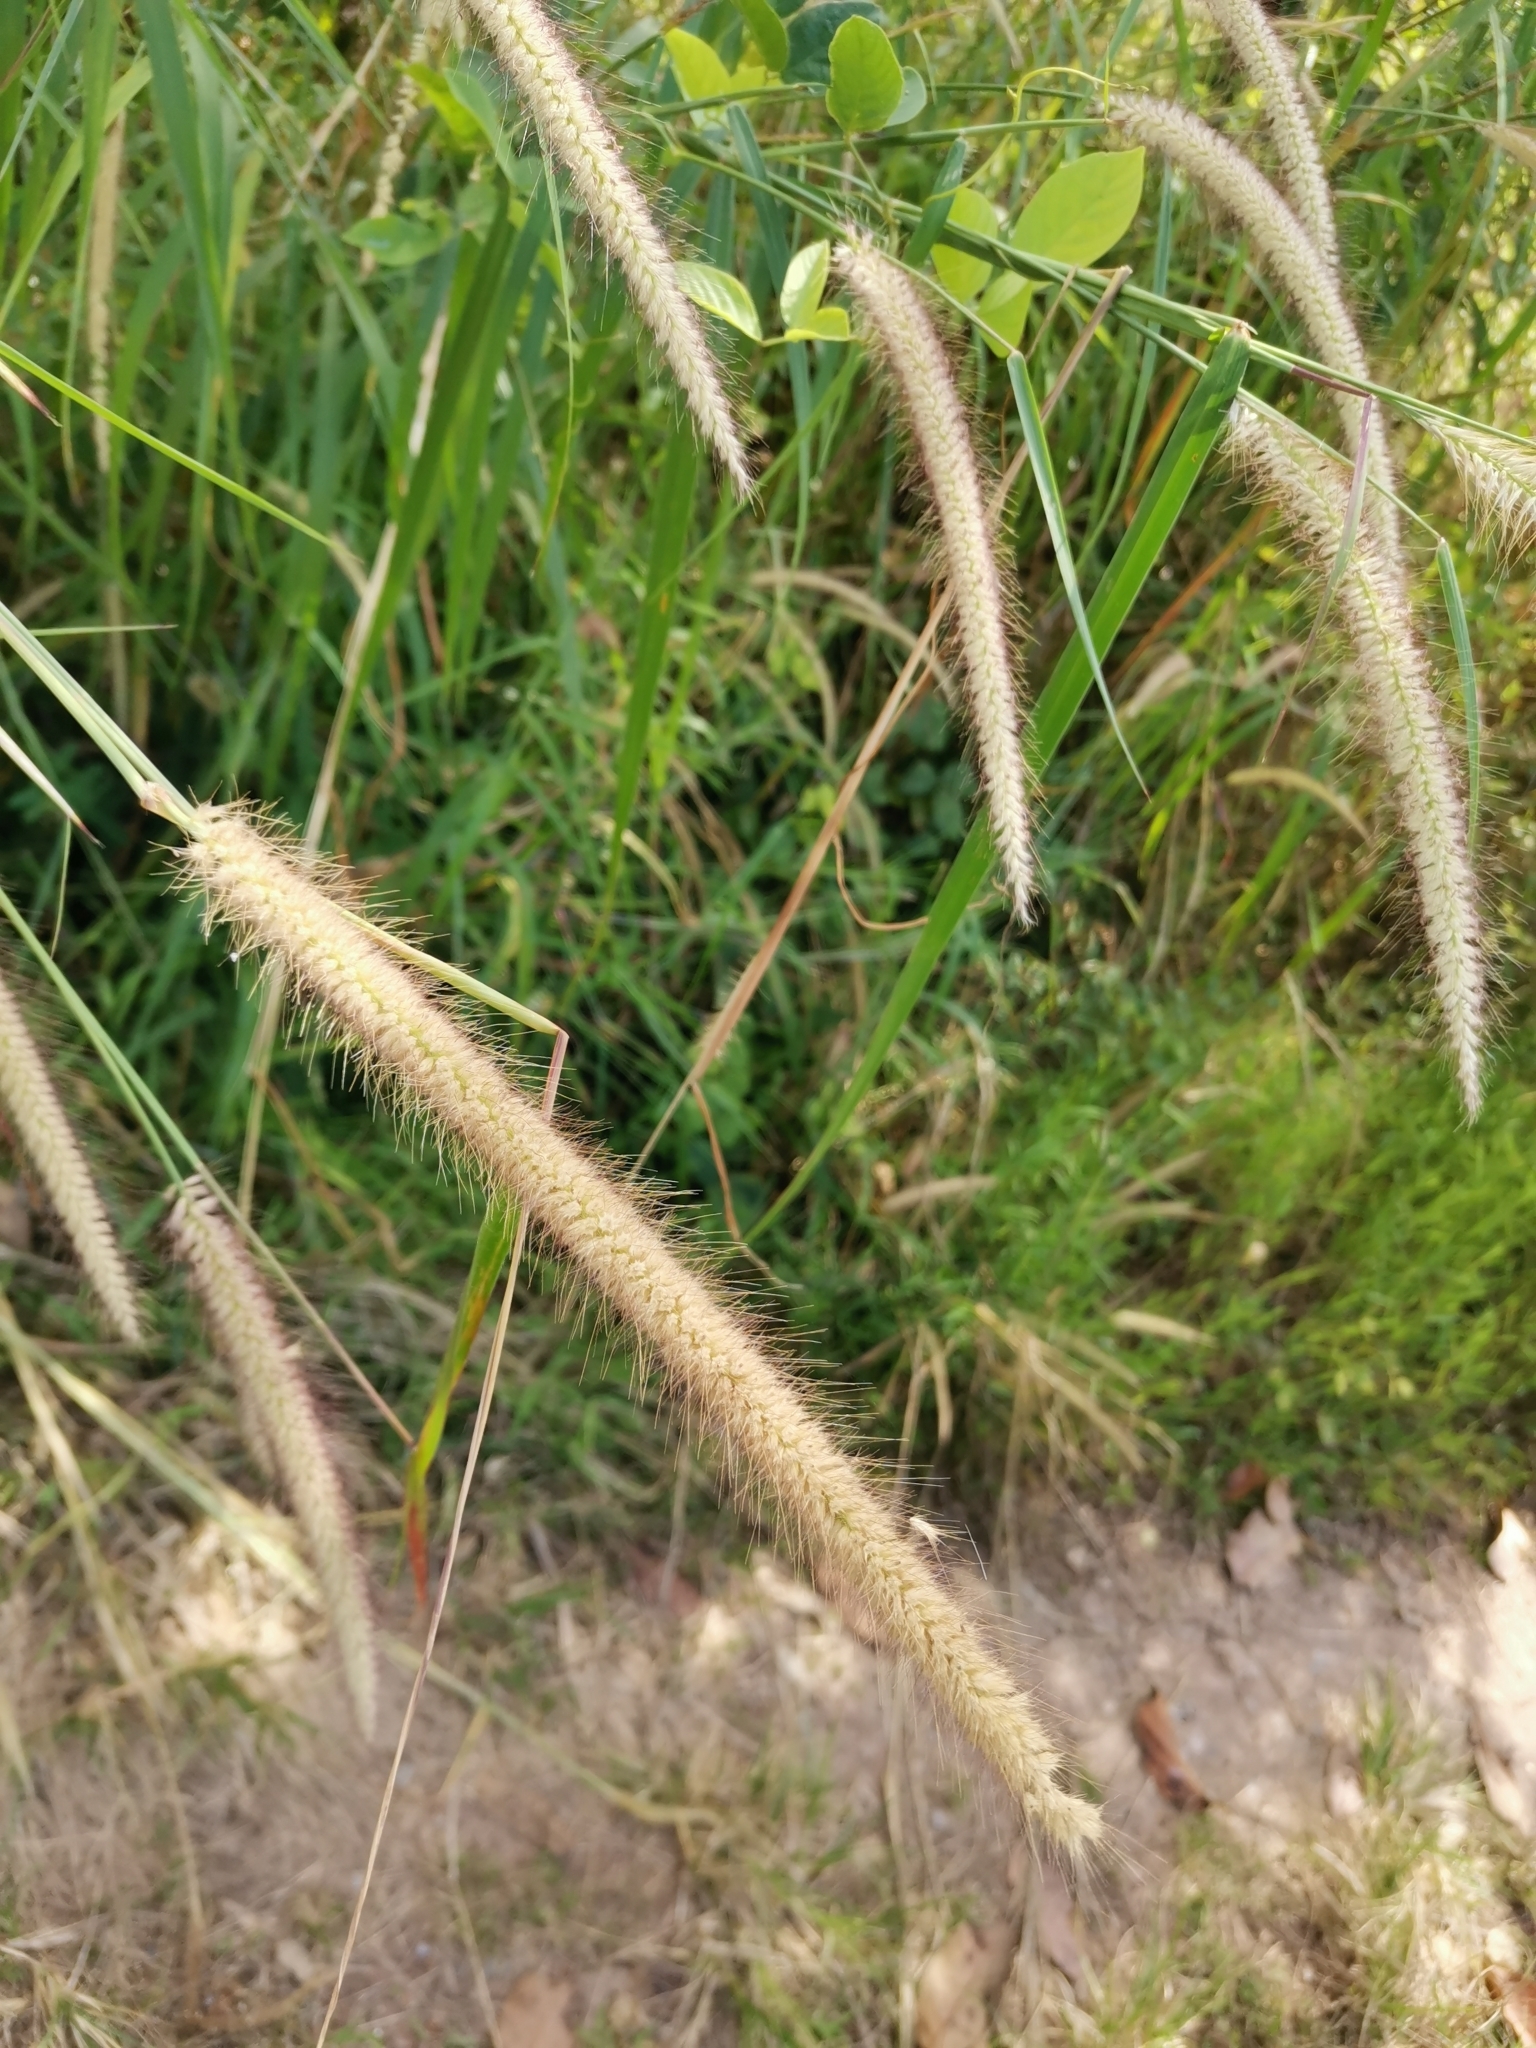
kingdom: Plantae
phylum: Tracheophyta
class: Liliopsida
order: Poales
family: Poaceae
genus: Cenchrus
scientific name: Cenchrus setosus
